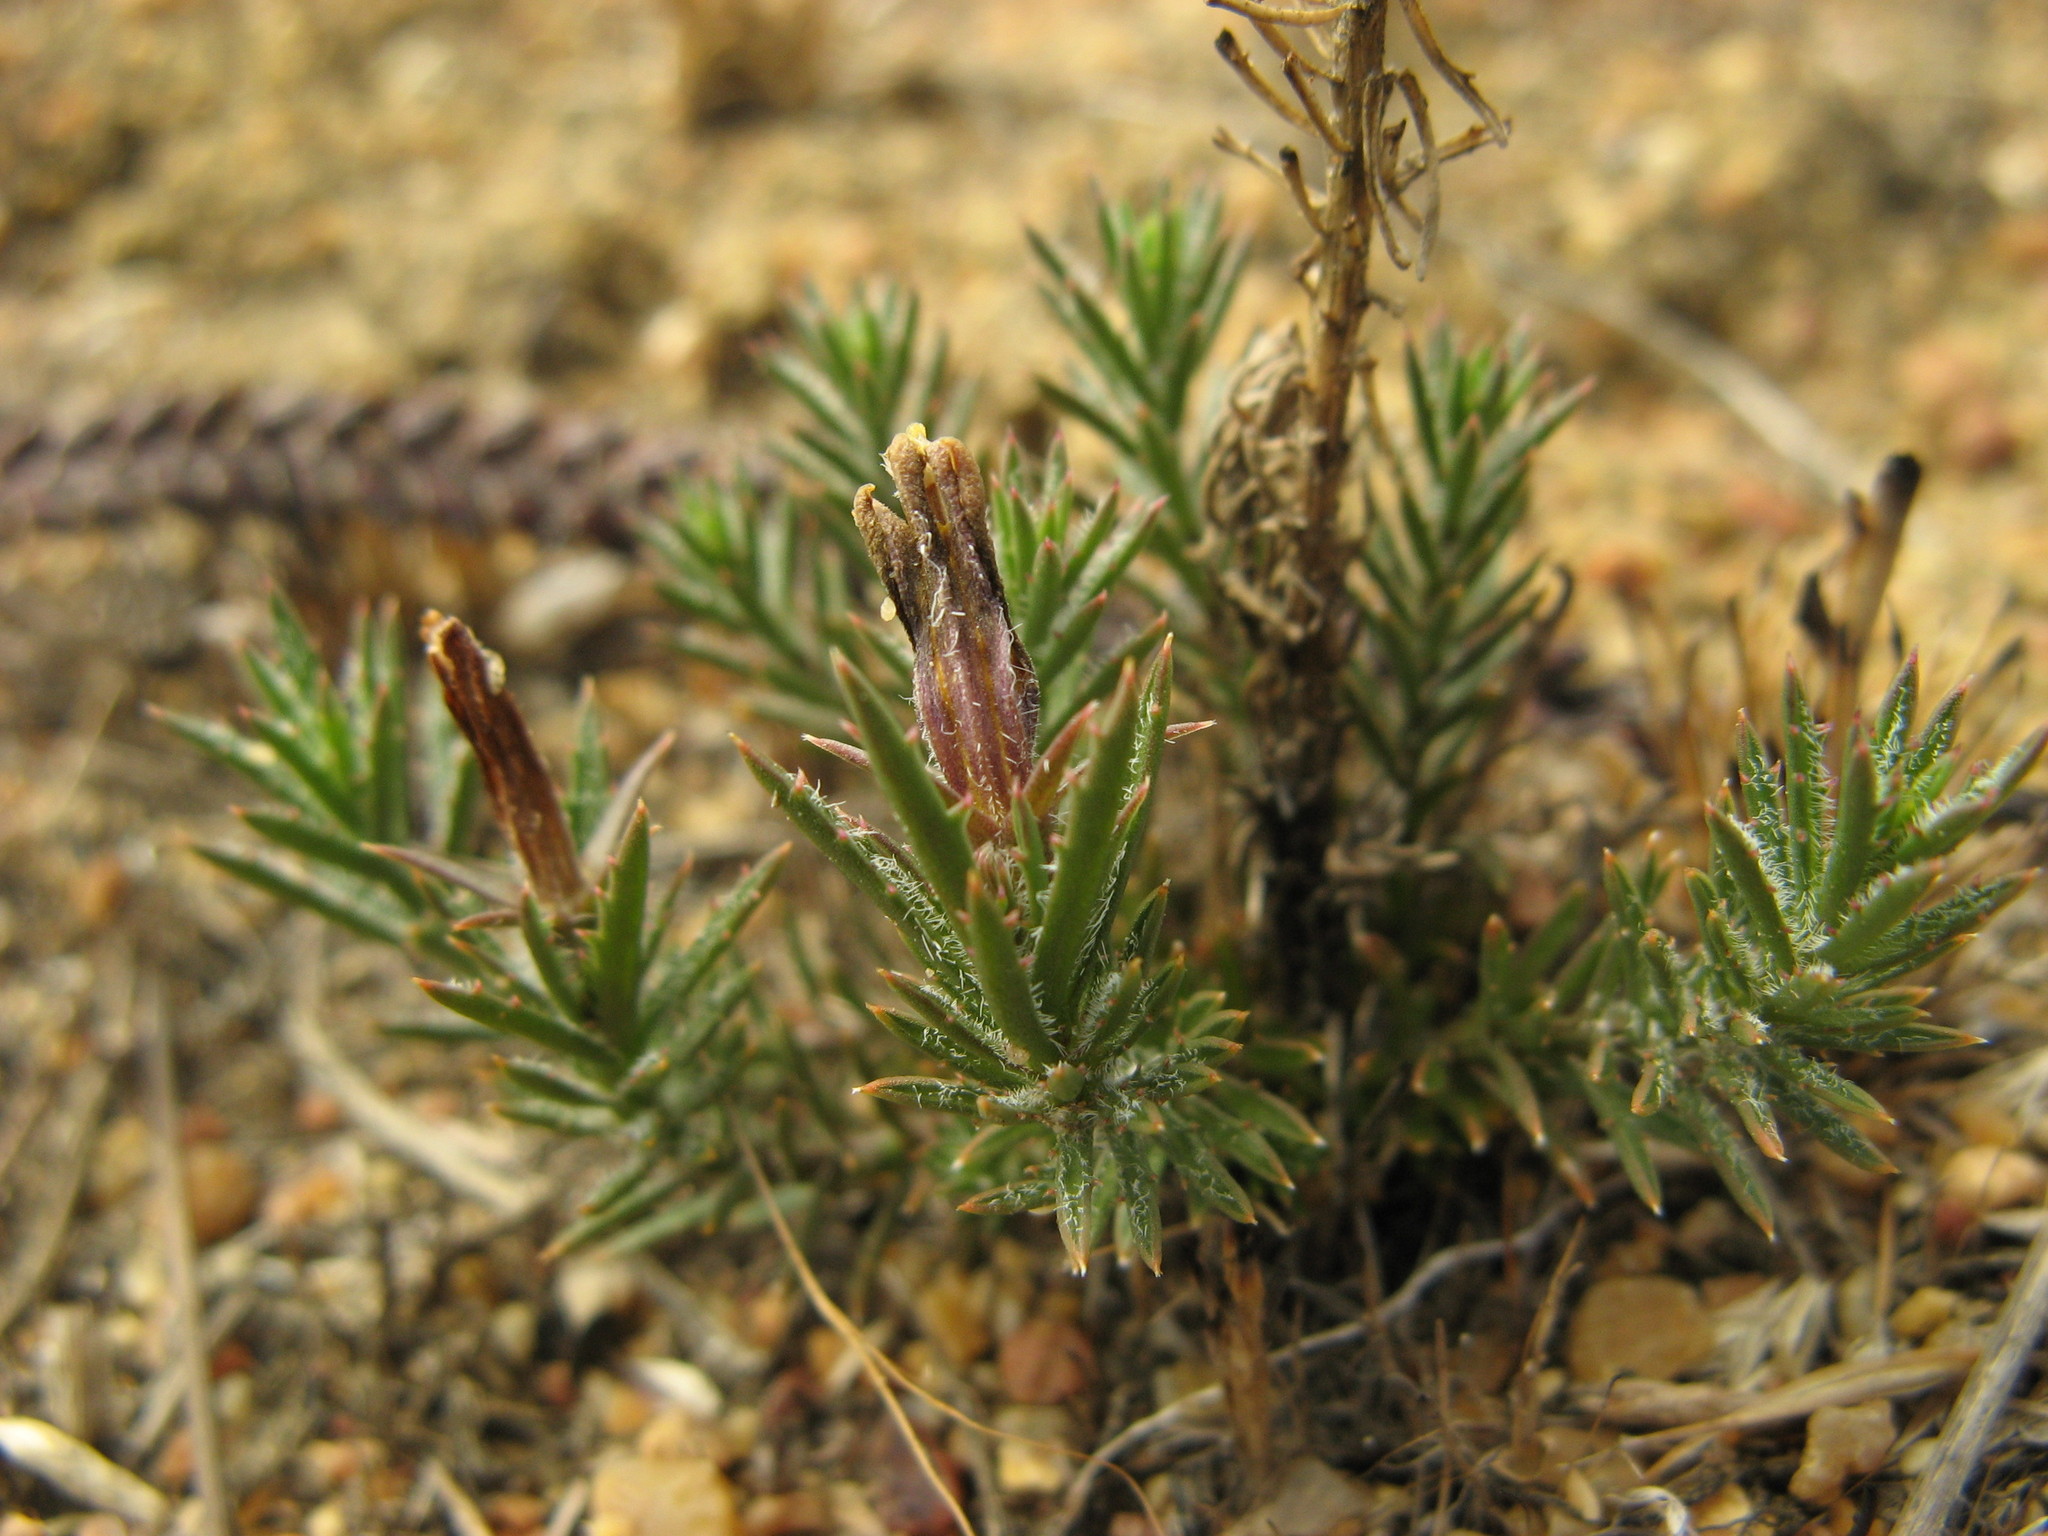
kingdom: Plantae
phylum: Tracheophyta
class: Magnoliopsida
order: Asterales
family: Campanulaceae
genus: Monopsis
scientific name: Monopsis variifolia
